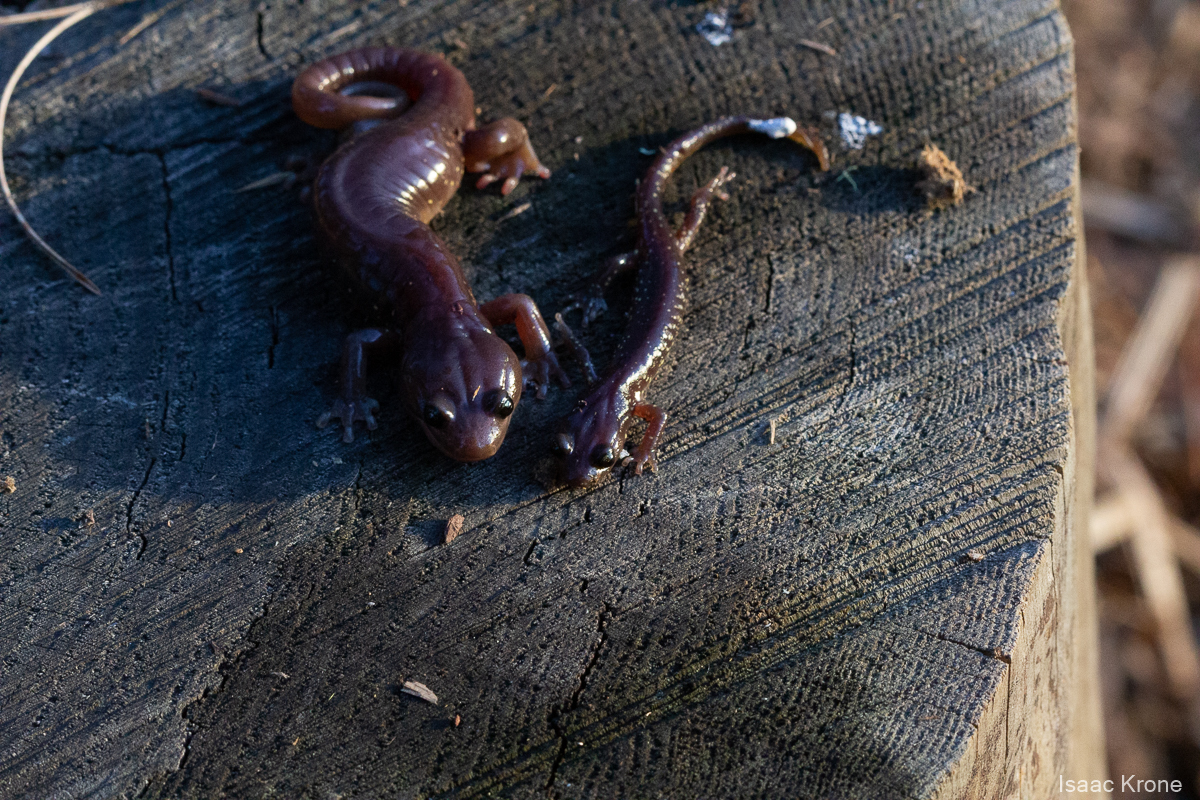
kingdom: Animalia
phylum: Chordata
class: Amphibia
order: Caudata
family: Plethodontidae
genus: Aneides
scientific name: Aneides lugubris
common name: Arboreal salamander
